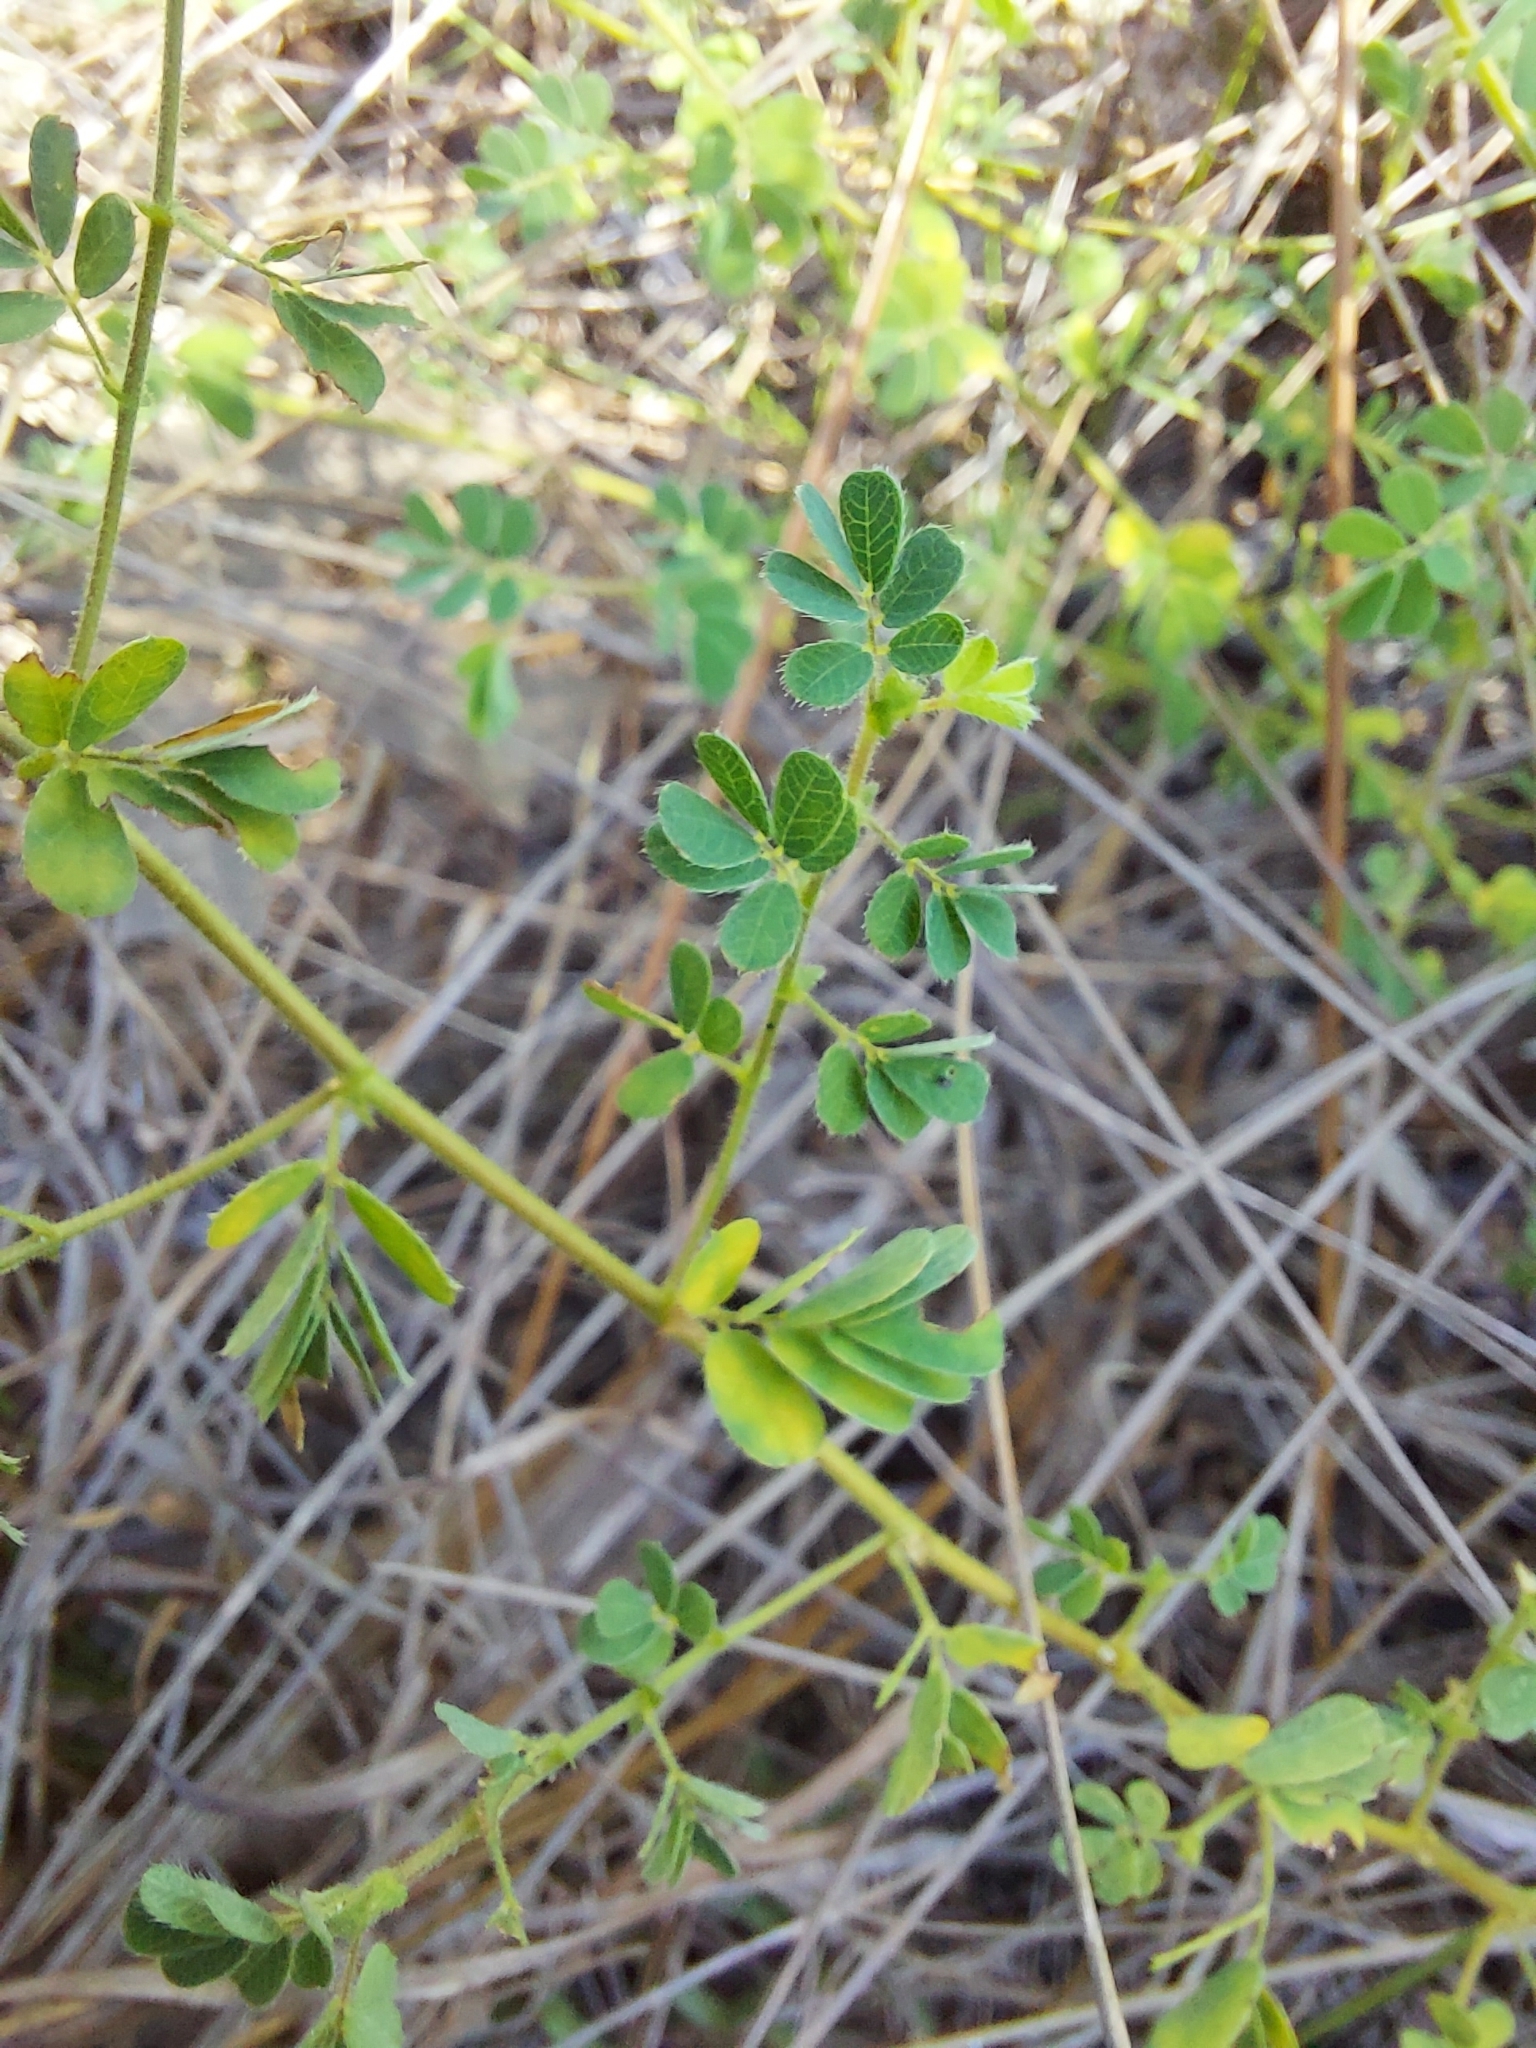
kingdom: Plantae
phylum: Tracheophyta
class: Magnoliopsida
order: Fabales
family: Fabaceae
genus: Ctenodon
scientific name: Ctenodon viscidulus
